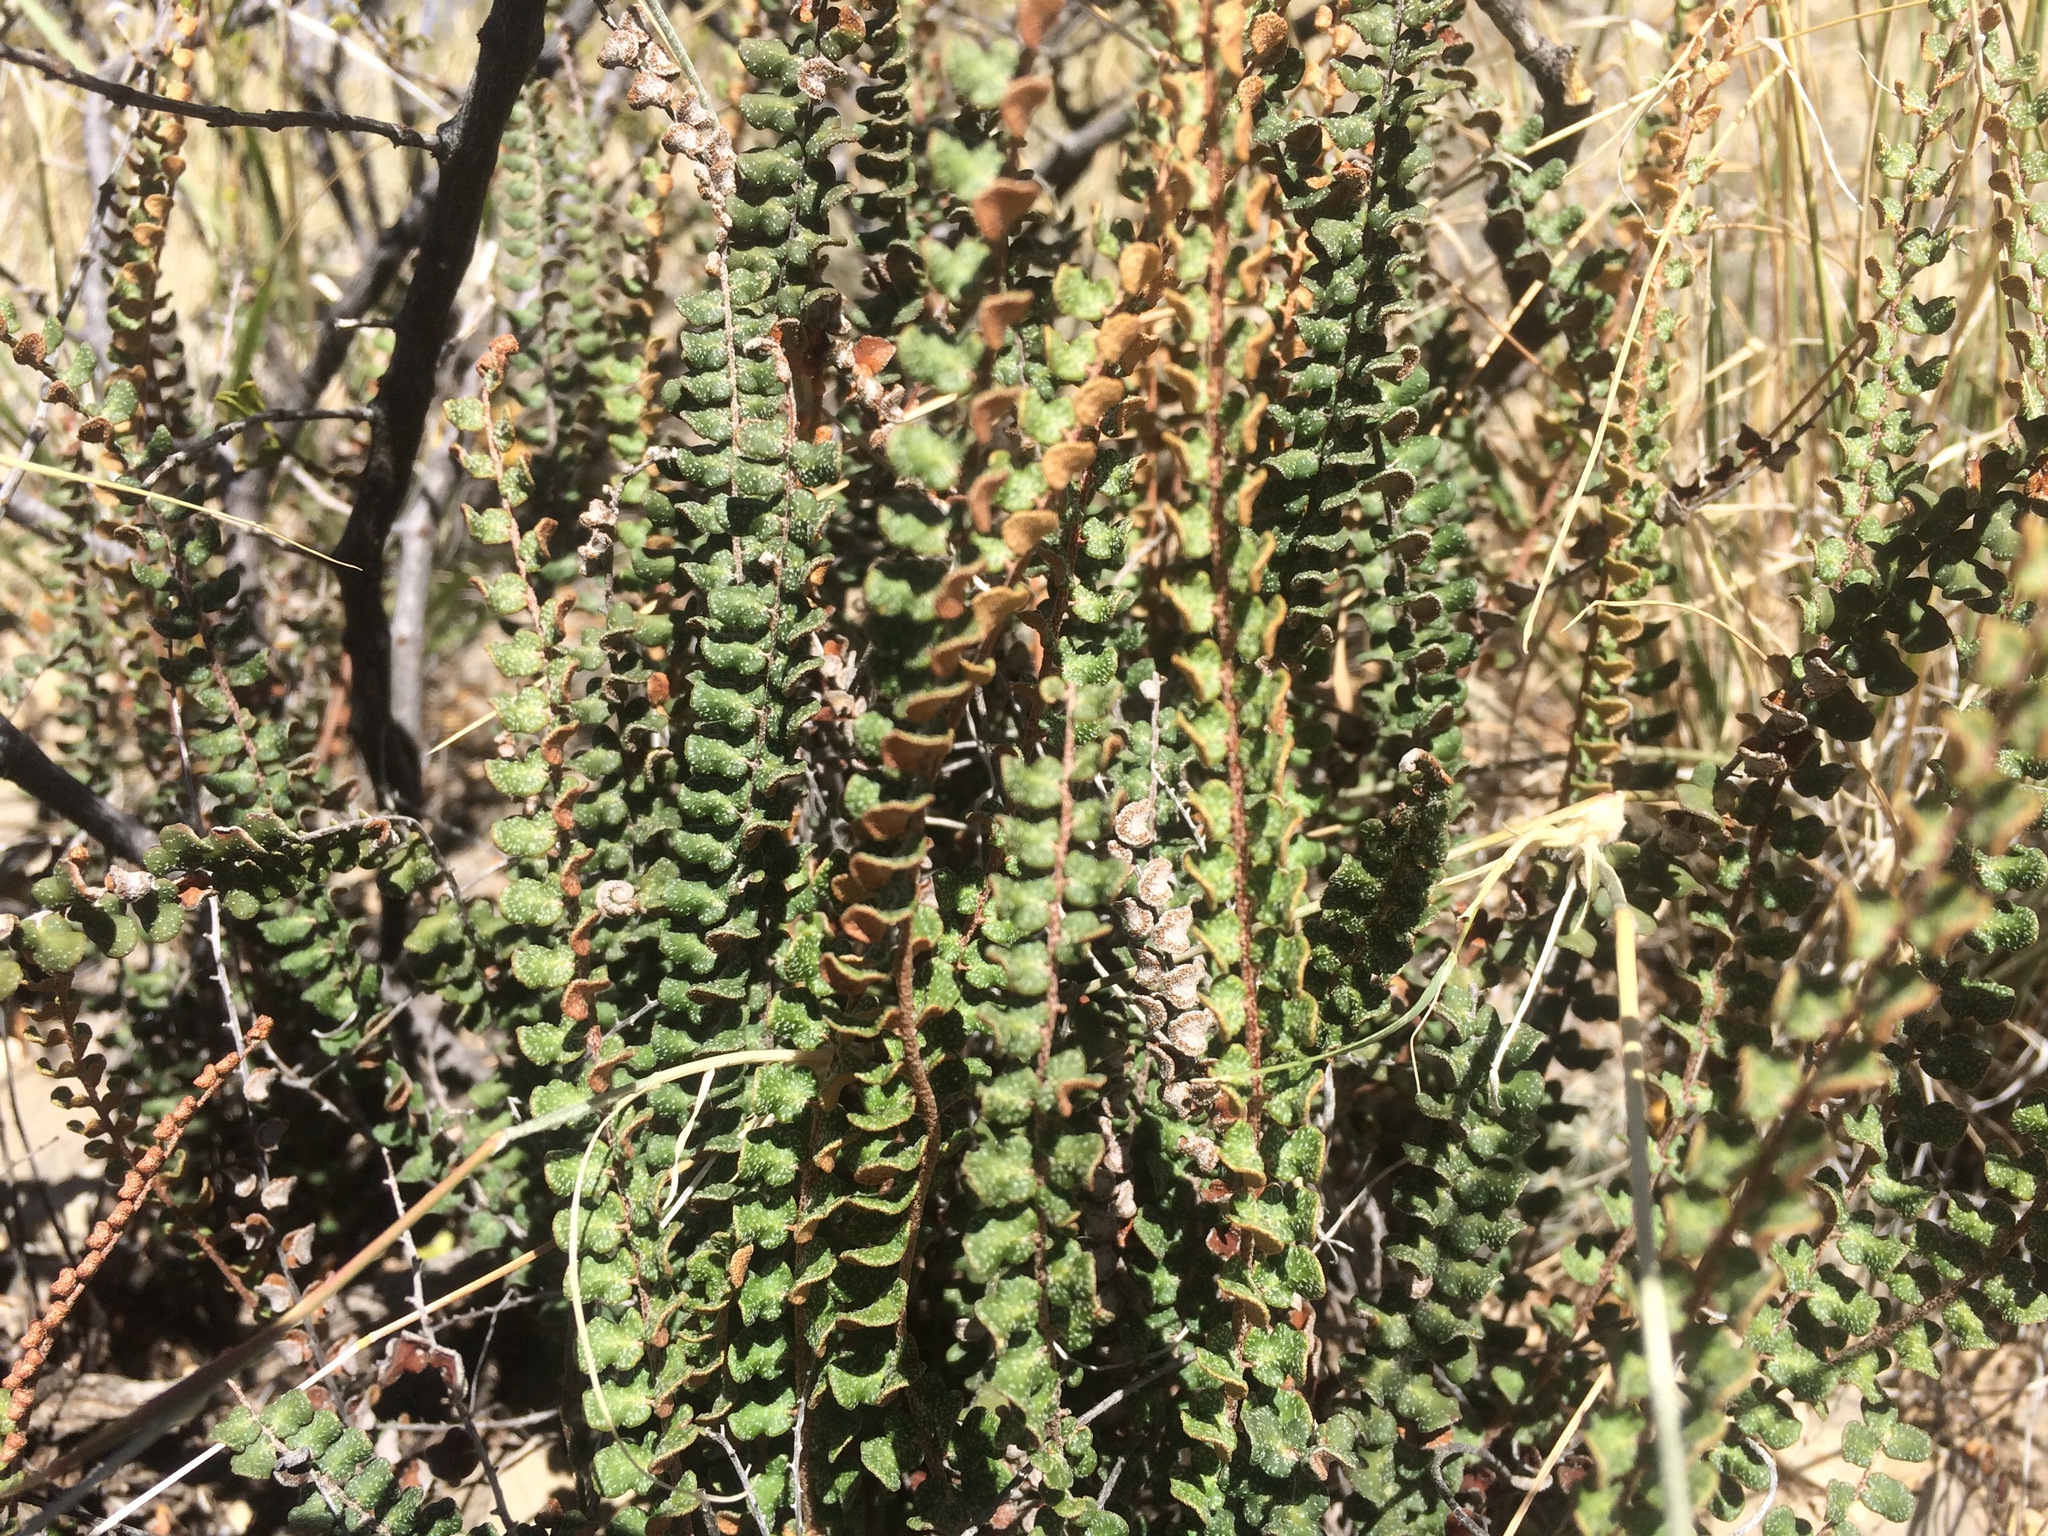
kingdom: Plantae
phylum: Tracheophyta
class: Polypodiopsida
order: Polypodiales
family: Pteridaceae
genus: Astrolepis
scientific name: Astrolepis cochisensis
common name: Scaly cloak fern
